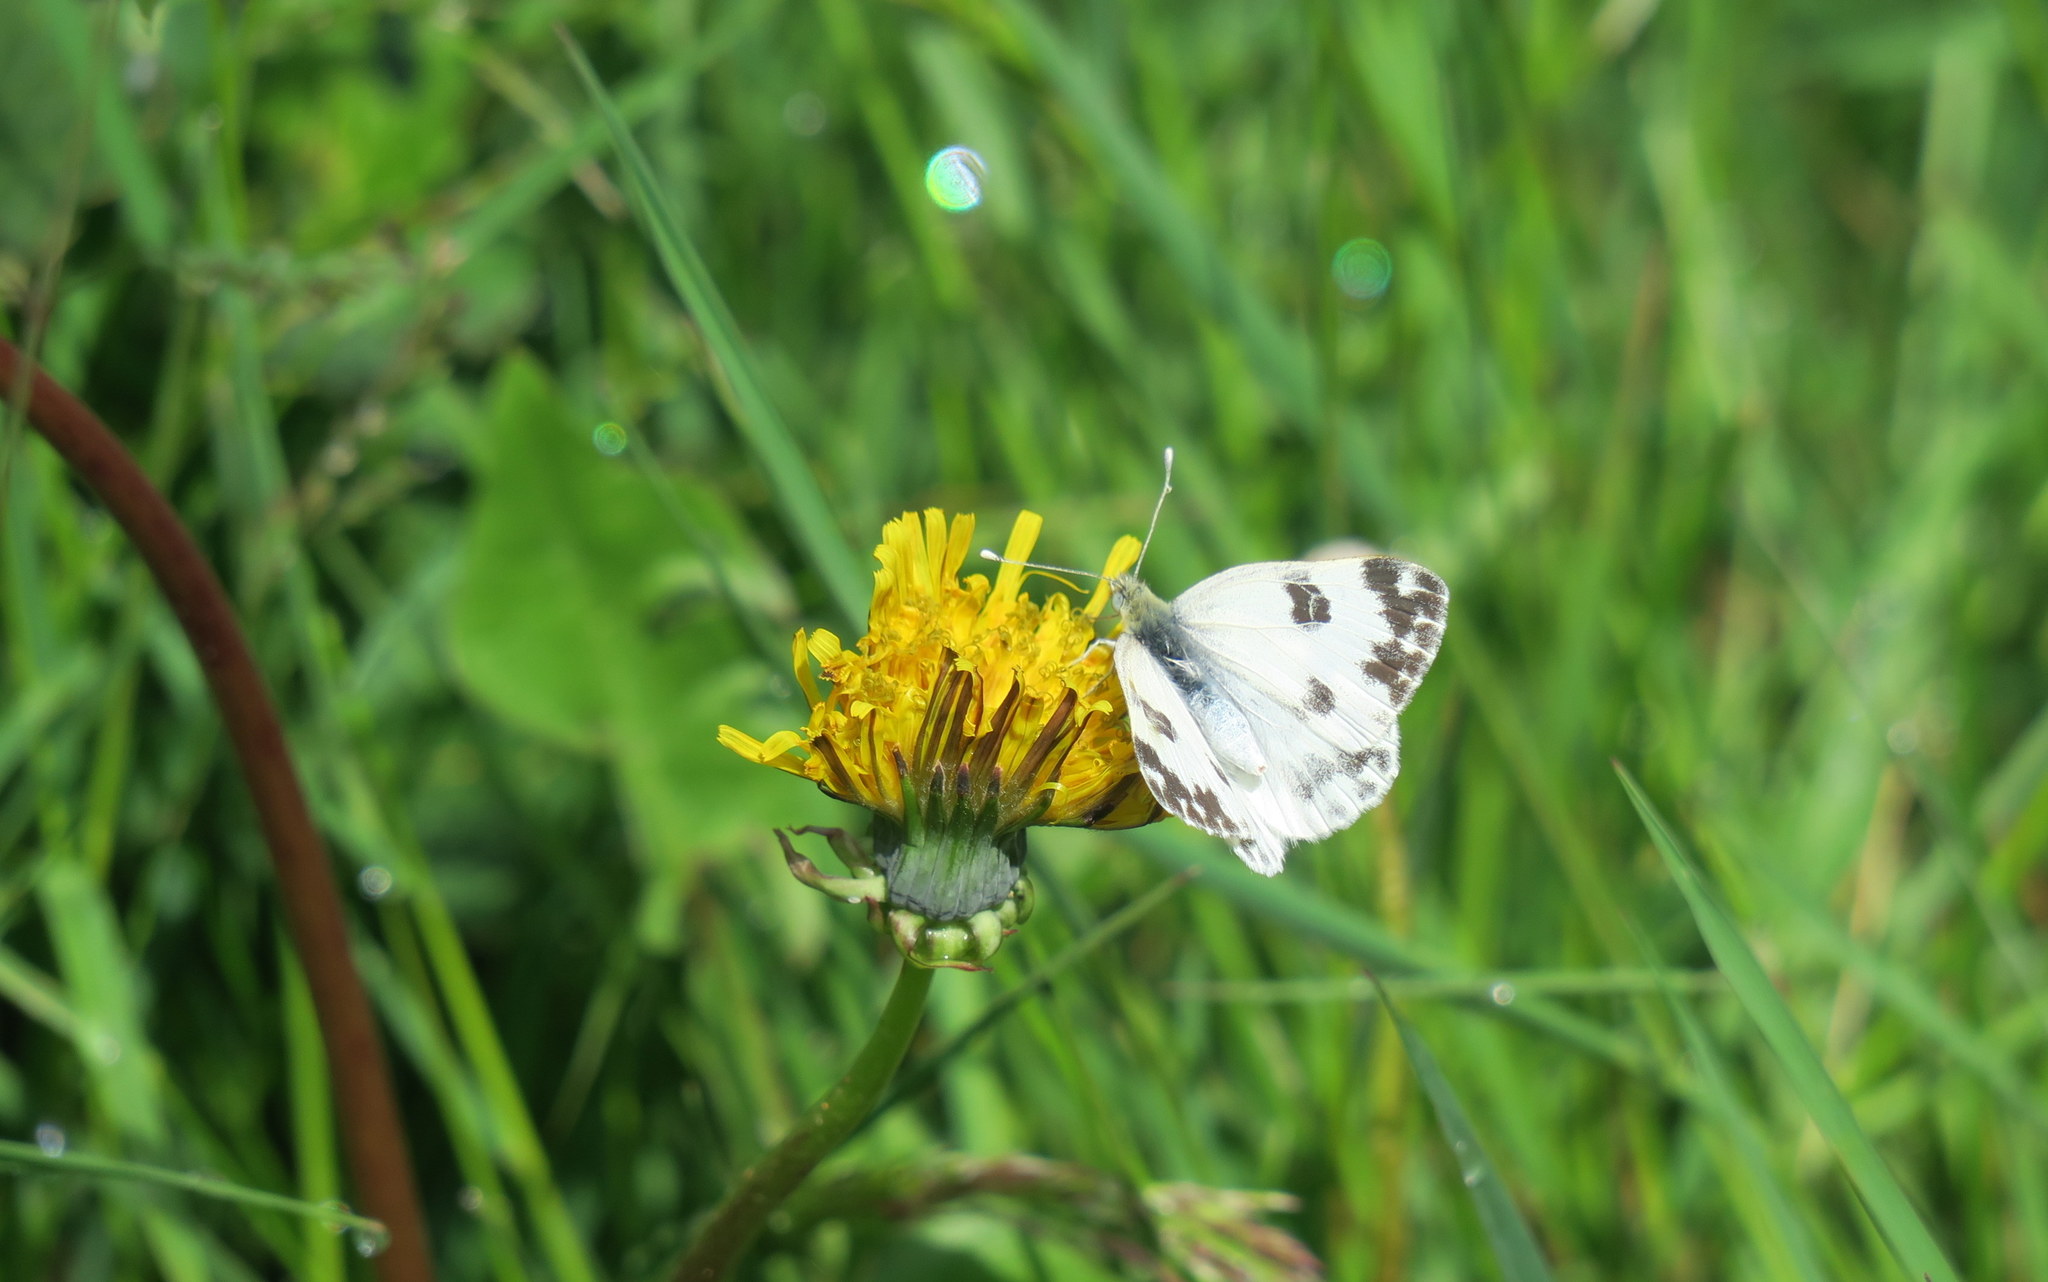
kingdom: Animalia
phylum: Arthropoda
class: Insecta
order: Lepidoptera
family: Pieridae
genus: Pontia
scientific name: Pontia edusa
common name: Eastern bath white
